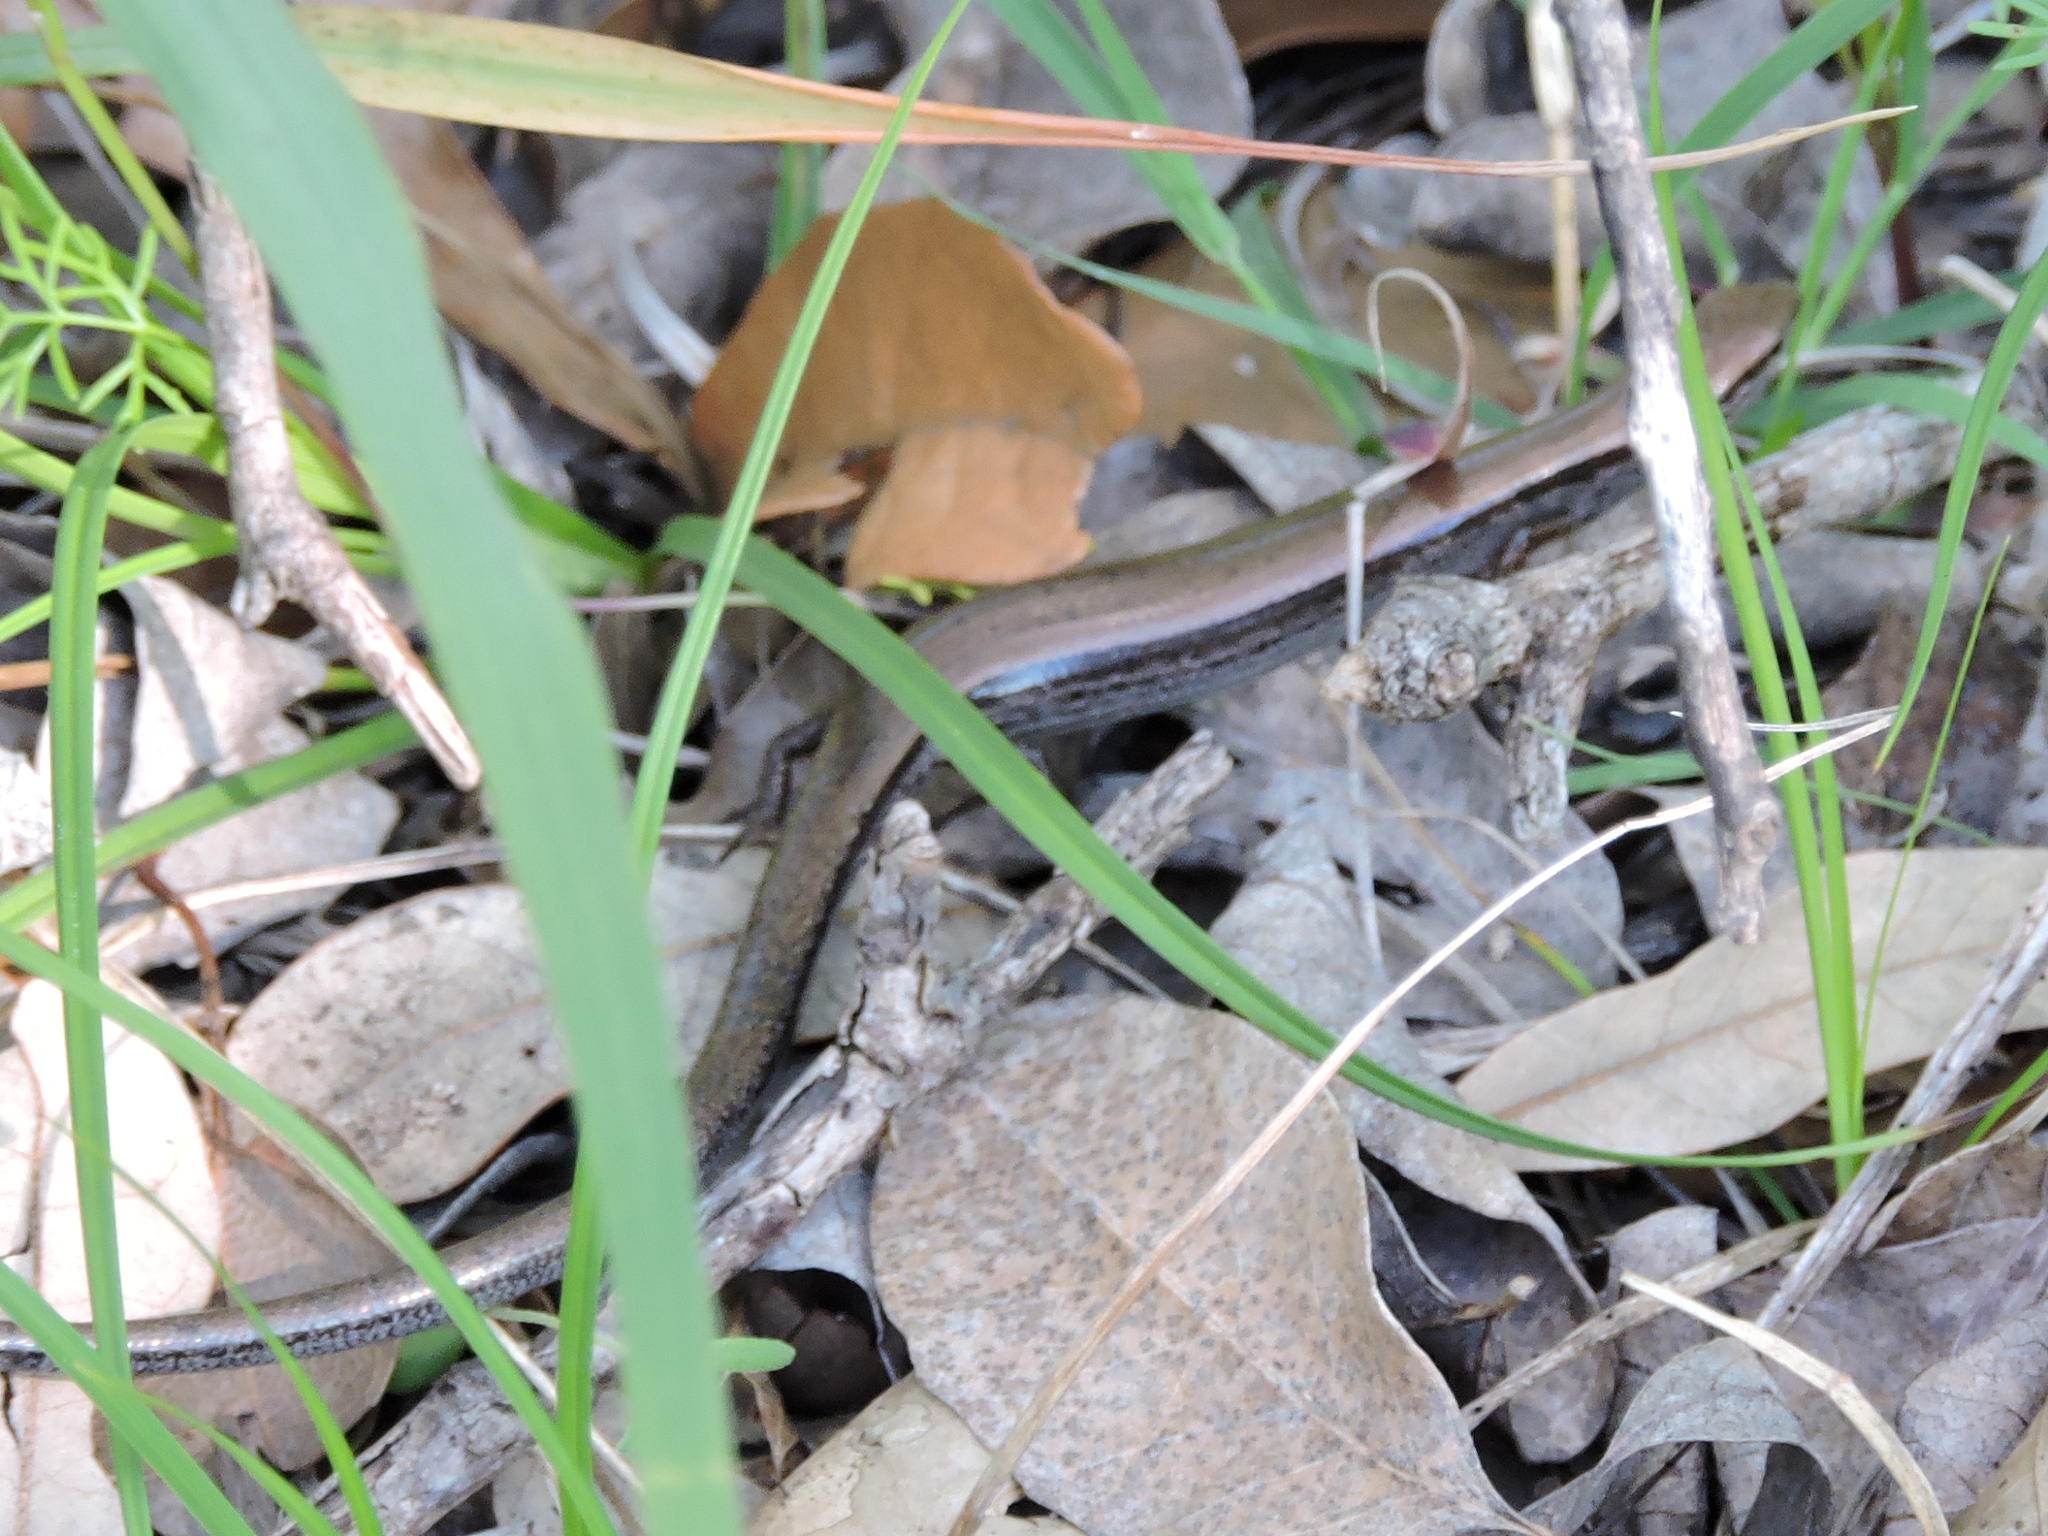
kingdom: Animalia
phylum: Chordata
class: Squamata
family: Scincidae
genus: Scincella
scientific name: Scincella lateralis
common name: Ground skink
